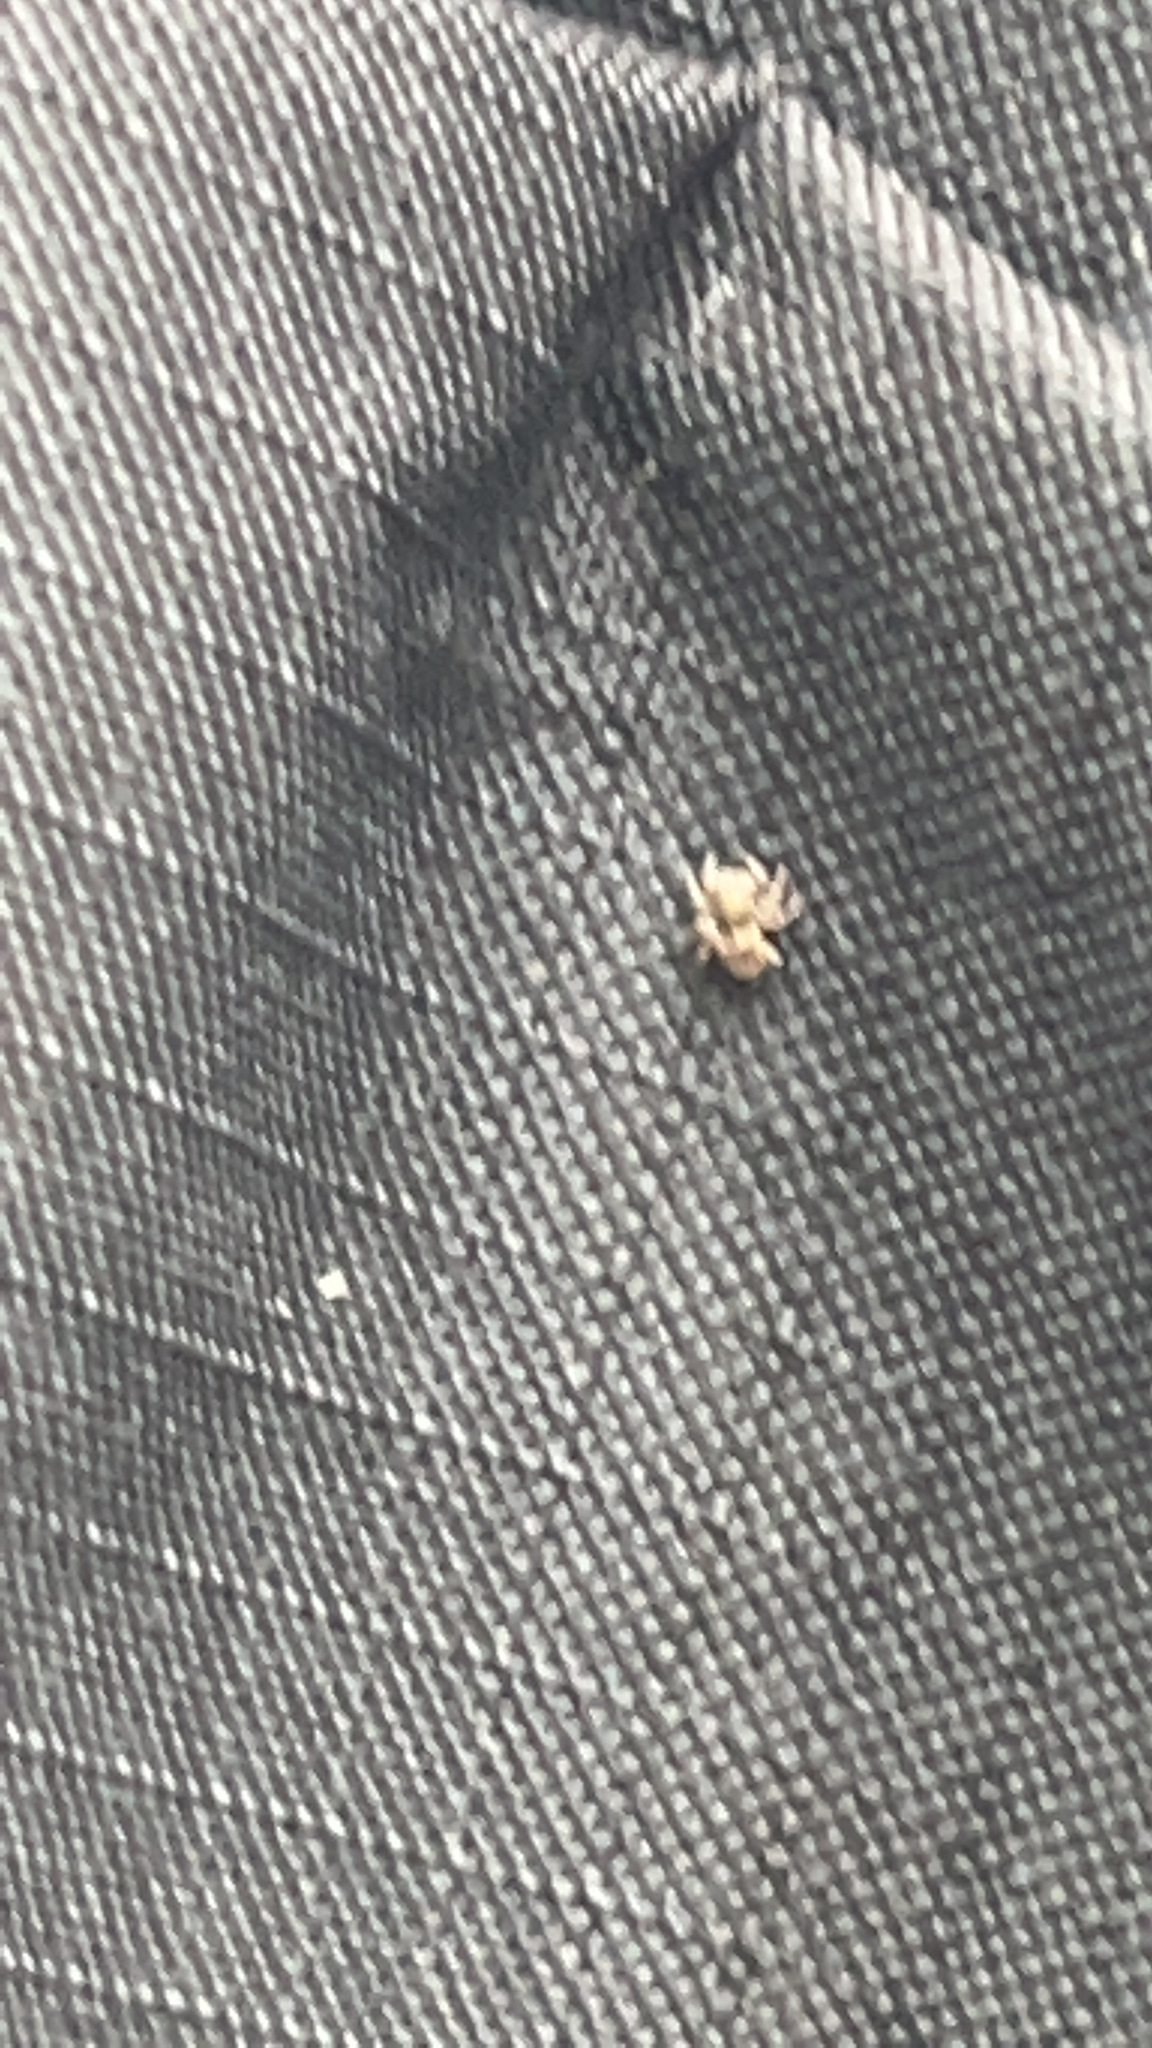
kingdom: Animalia
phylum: Arthropoda
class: Arachnida
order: Araneae
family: Salticidae
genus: Attulus
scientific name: Attulus fasciger
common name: Asiatic wall jumping spider
